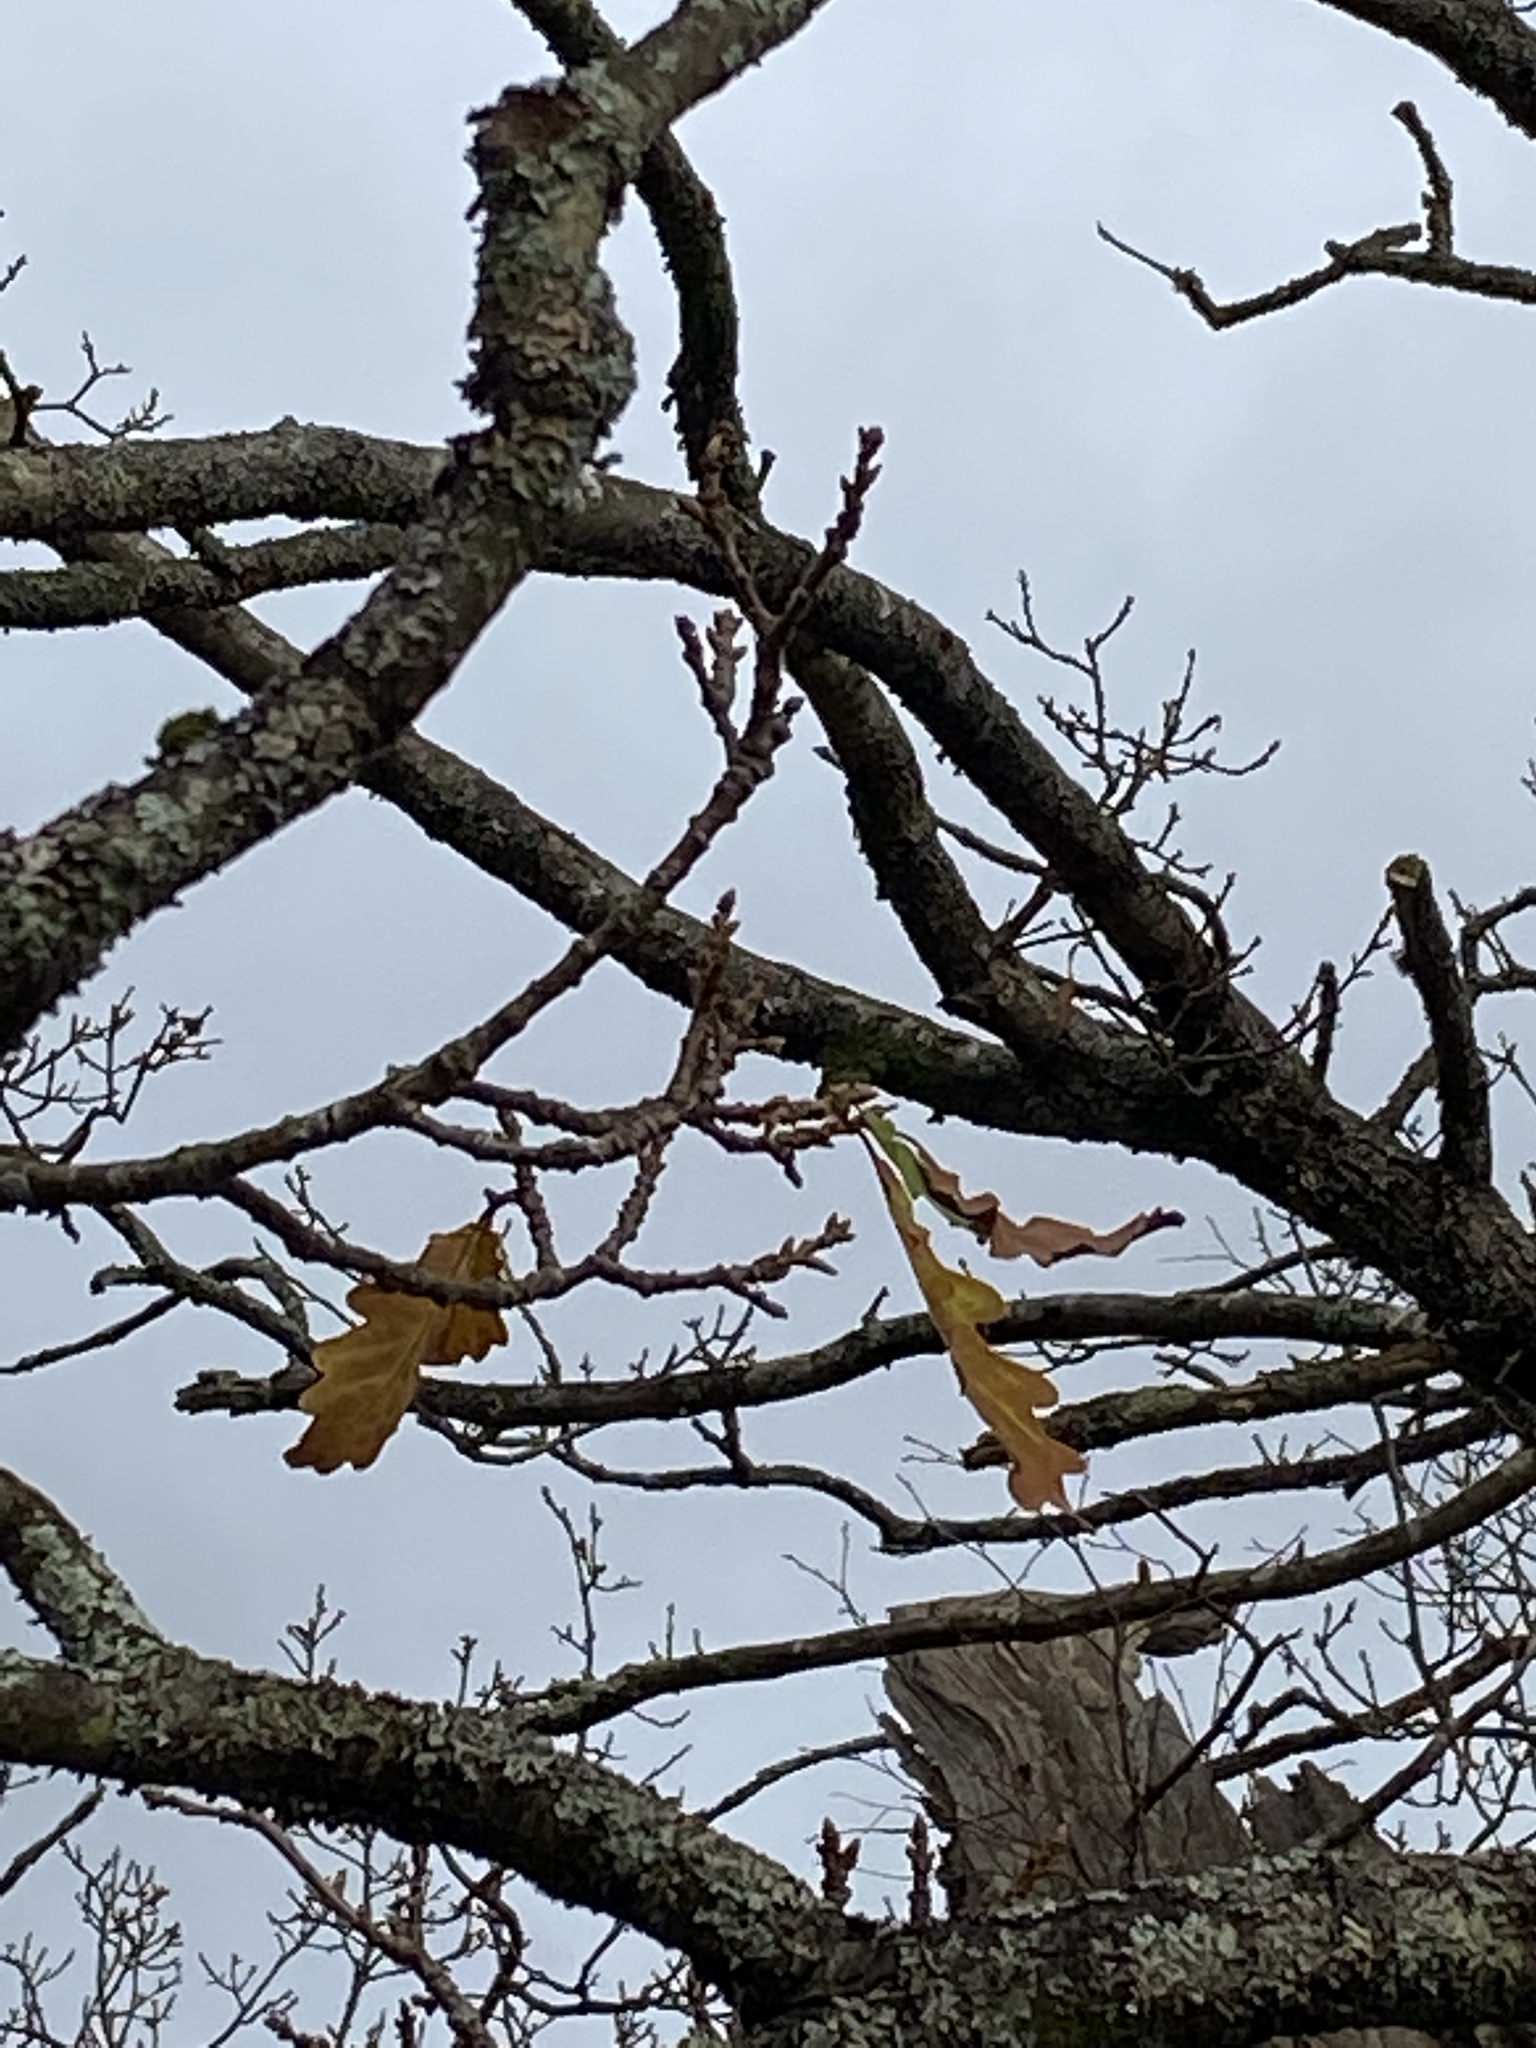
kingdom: Plantae
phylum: Tracheophyta
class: Magnoliopsida
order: Fagales
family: Fagaceae
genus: Quercus
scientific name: Quercus petraea
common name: Sessile oak
